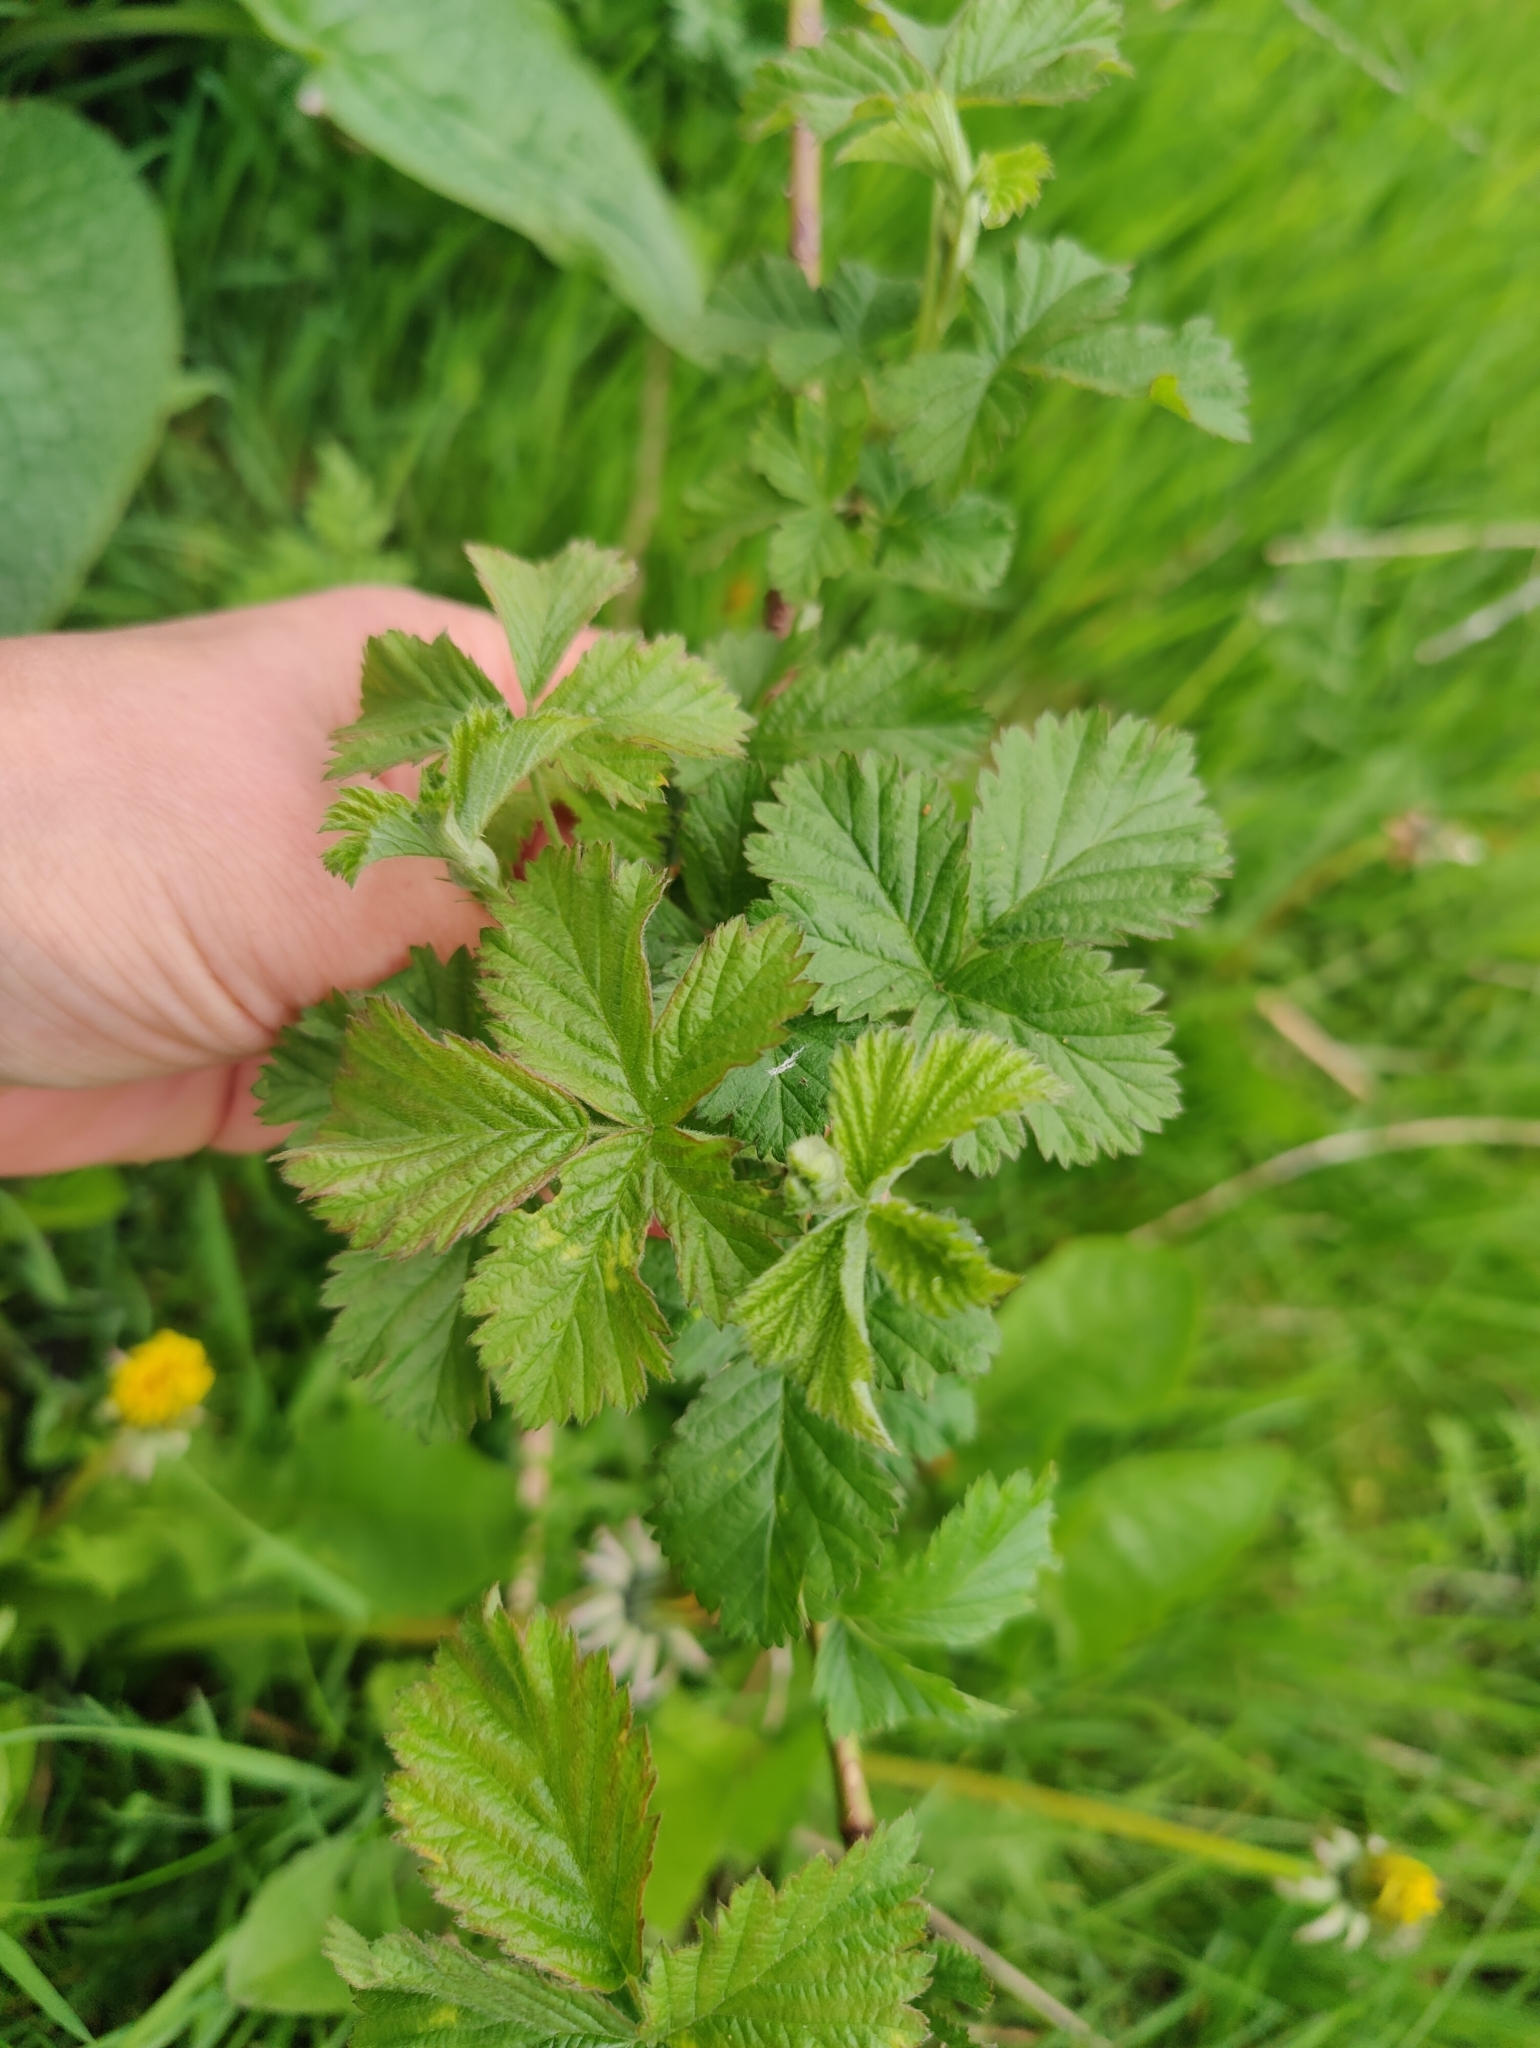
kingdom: Plantae
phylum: Tracheophyta
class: Magnoliopsida
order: Rosales
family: Rosaceae
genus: Rubus
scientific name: Rubus idaeus
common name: Raspberry
